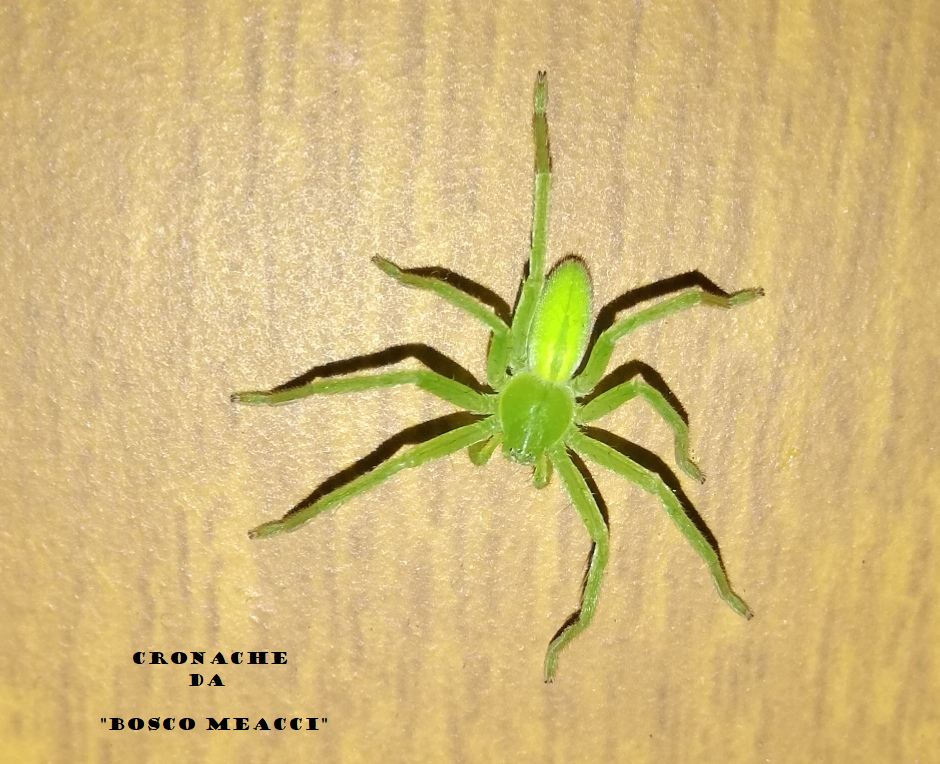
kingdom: Animalia
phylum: Arthropoda
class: Arachnida
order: Araneae
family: Sparassidae
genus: Micrommata
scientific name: Micrommata virescens
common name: Green spider
